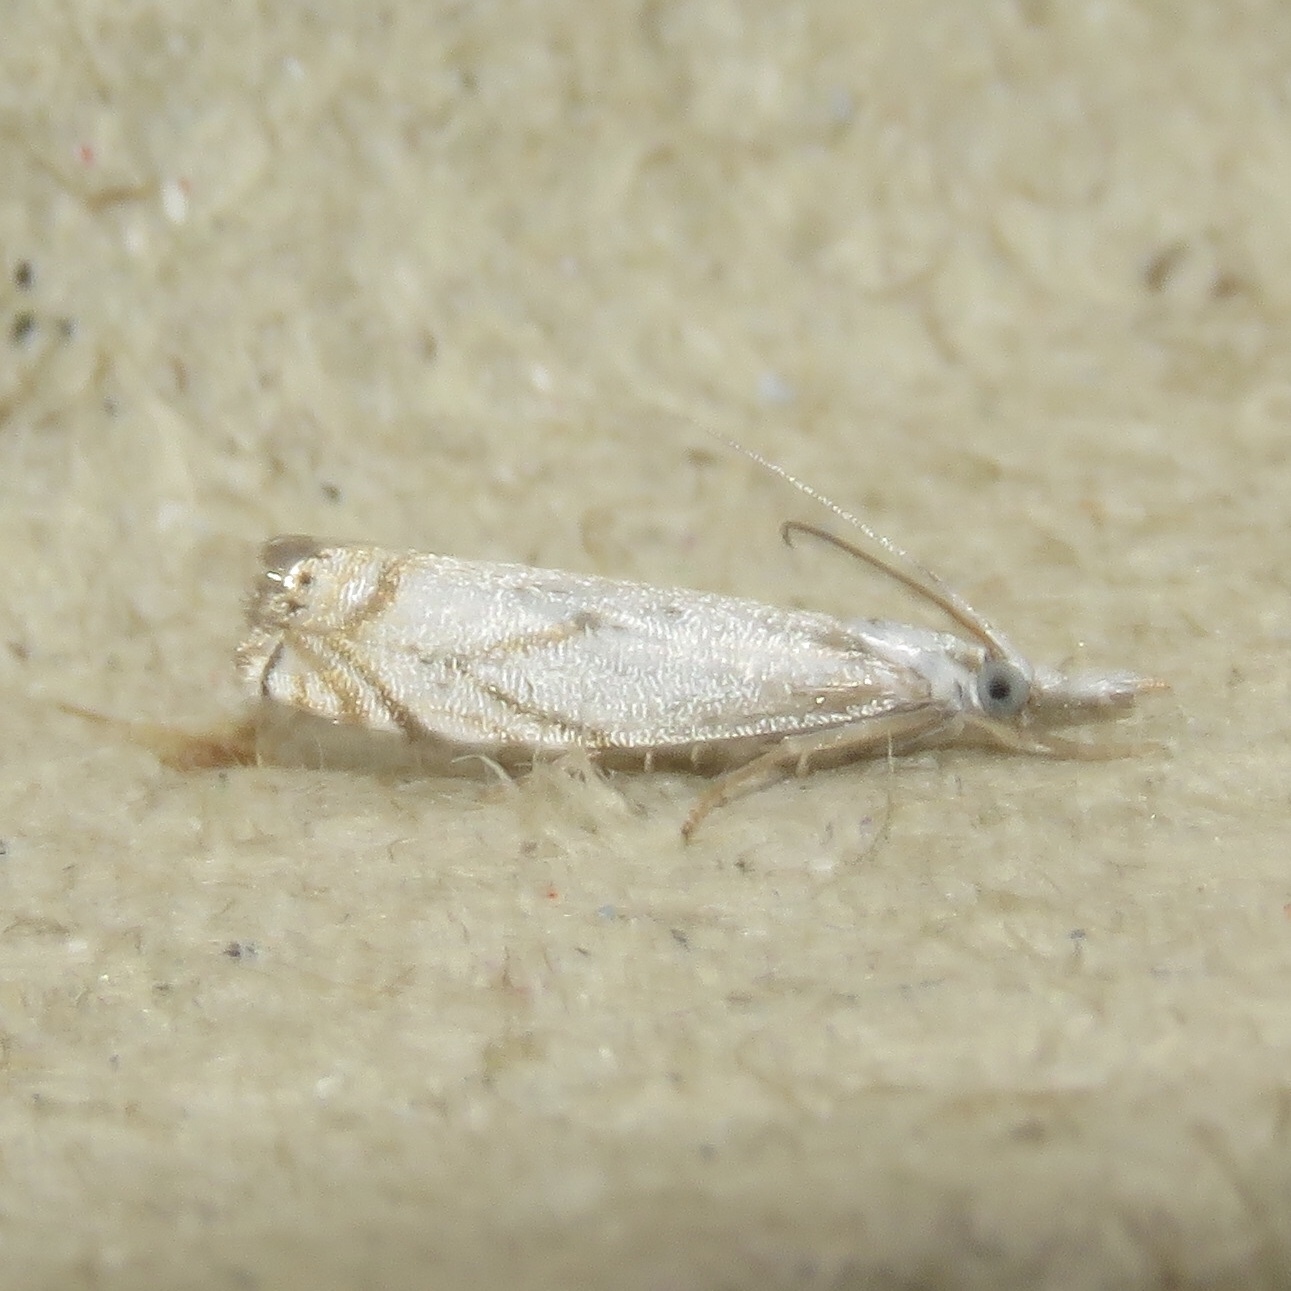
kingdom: Animalia
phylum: Arthropoda
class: Insecta
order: Lepidoptera
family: Crambidae
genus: Crambus
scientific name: Crambus albellus
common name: Small white grass-veneer
